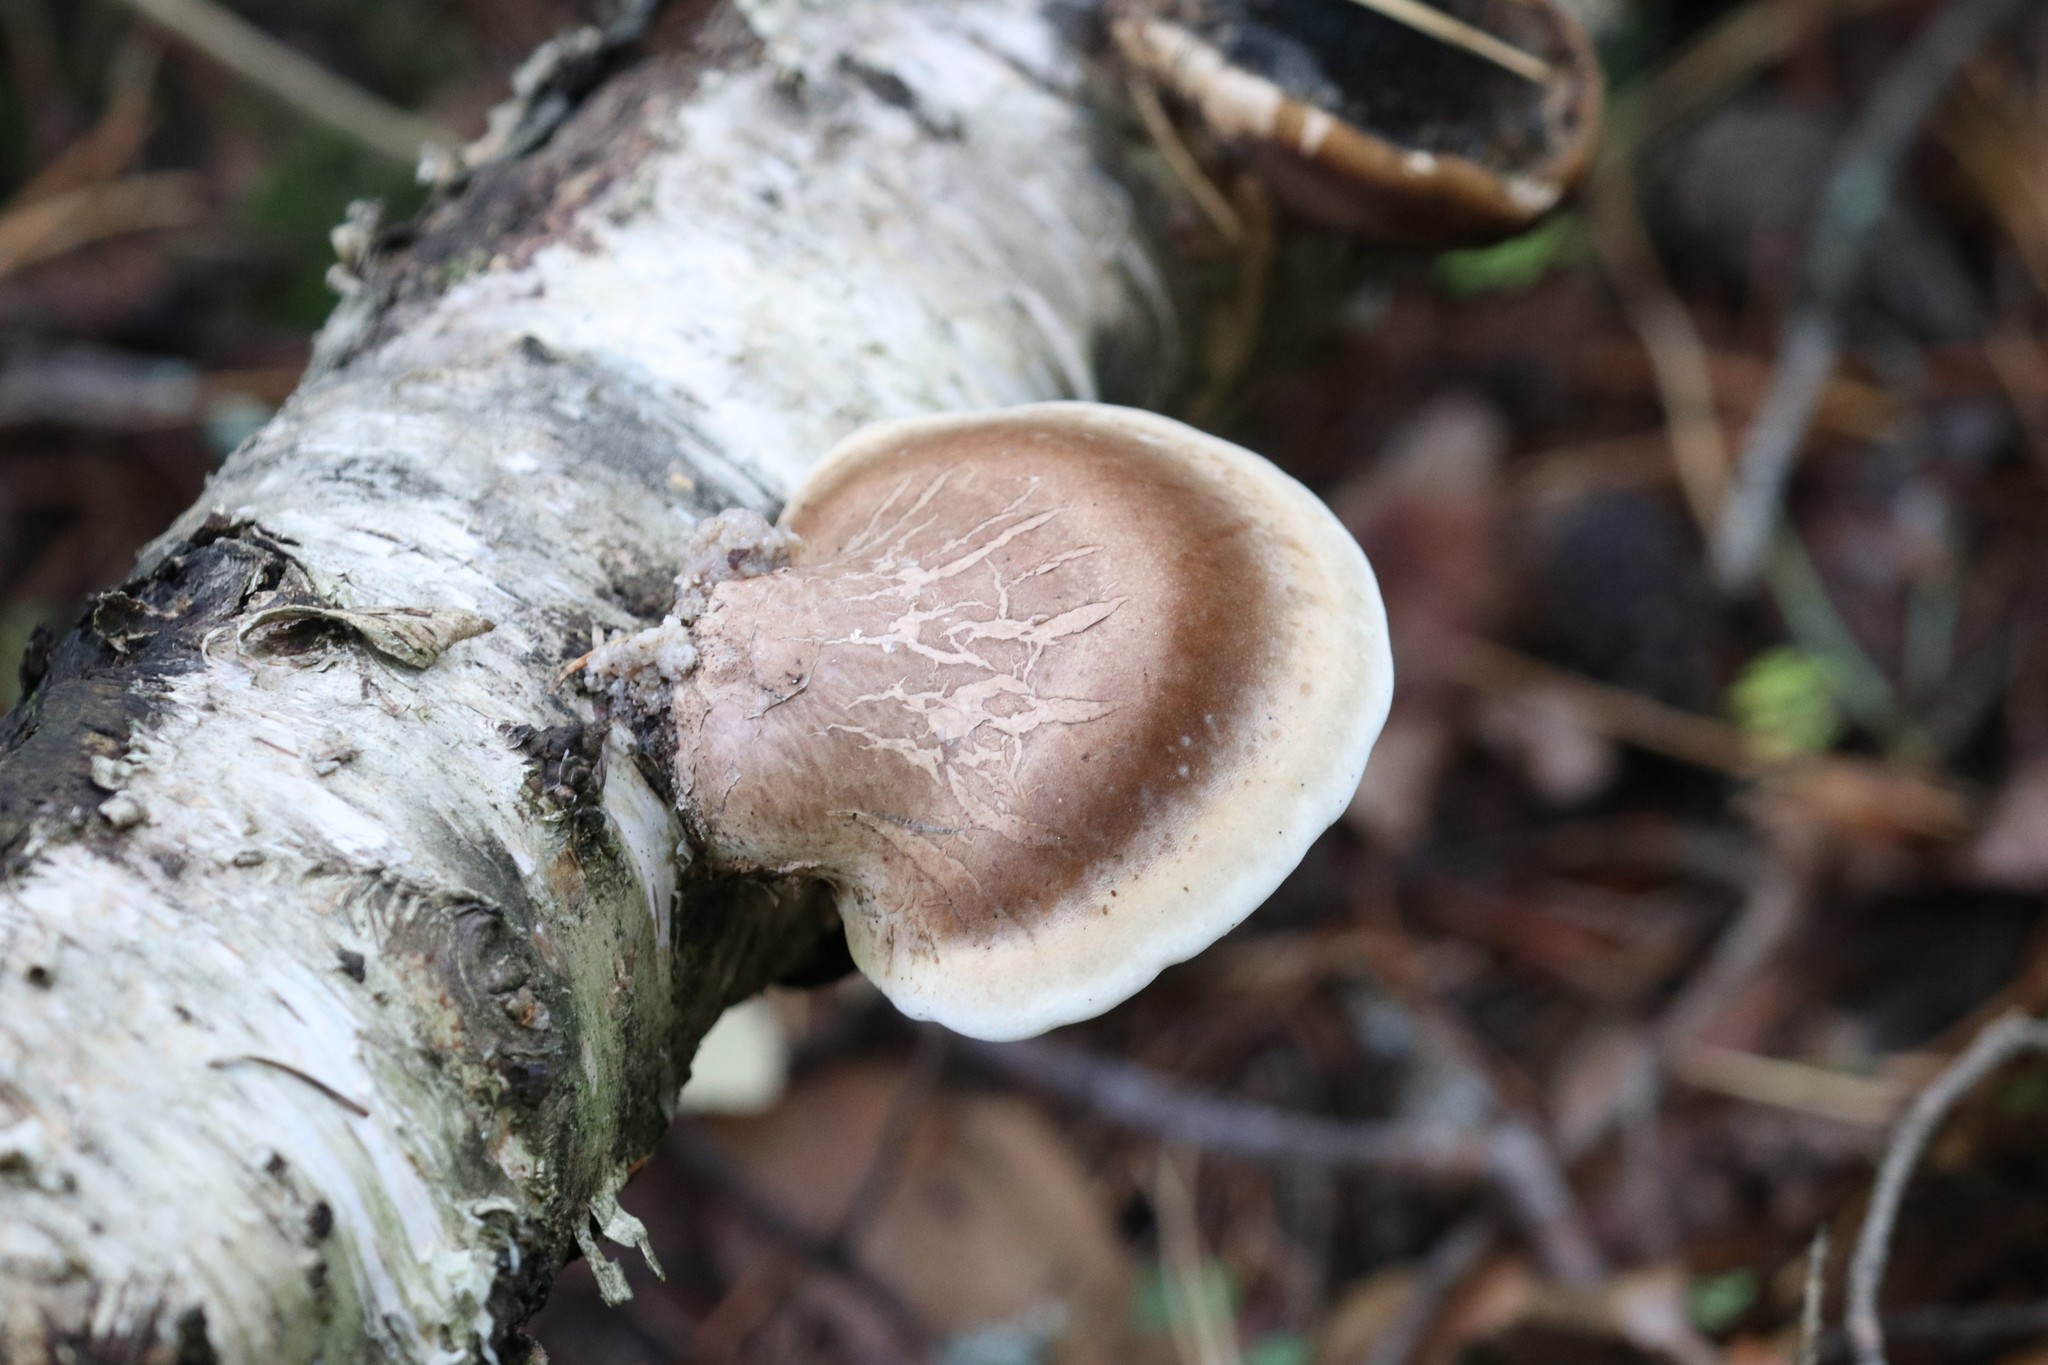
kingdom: Fungi
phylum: Basidiomycota
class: Agaricomycetes
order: Polyporales
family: Fomitopsidaceae
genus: Fomitopsis
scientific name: Fomitopsis betulina
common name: Birch polypore
